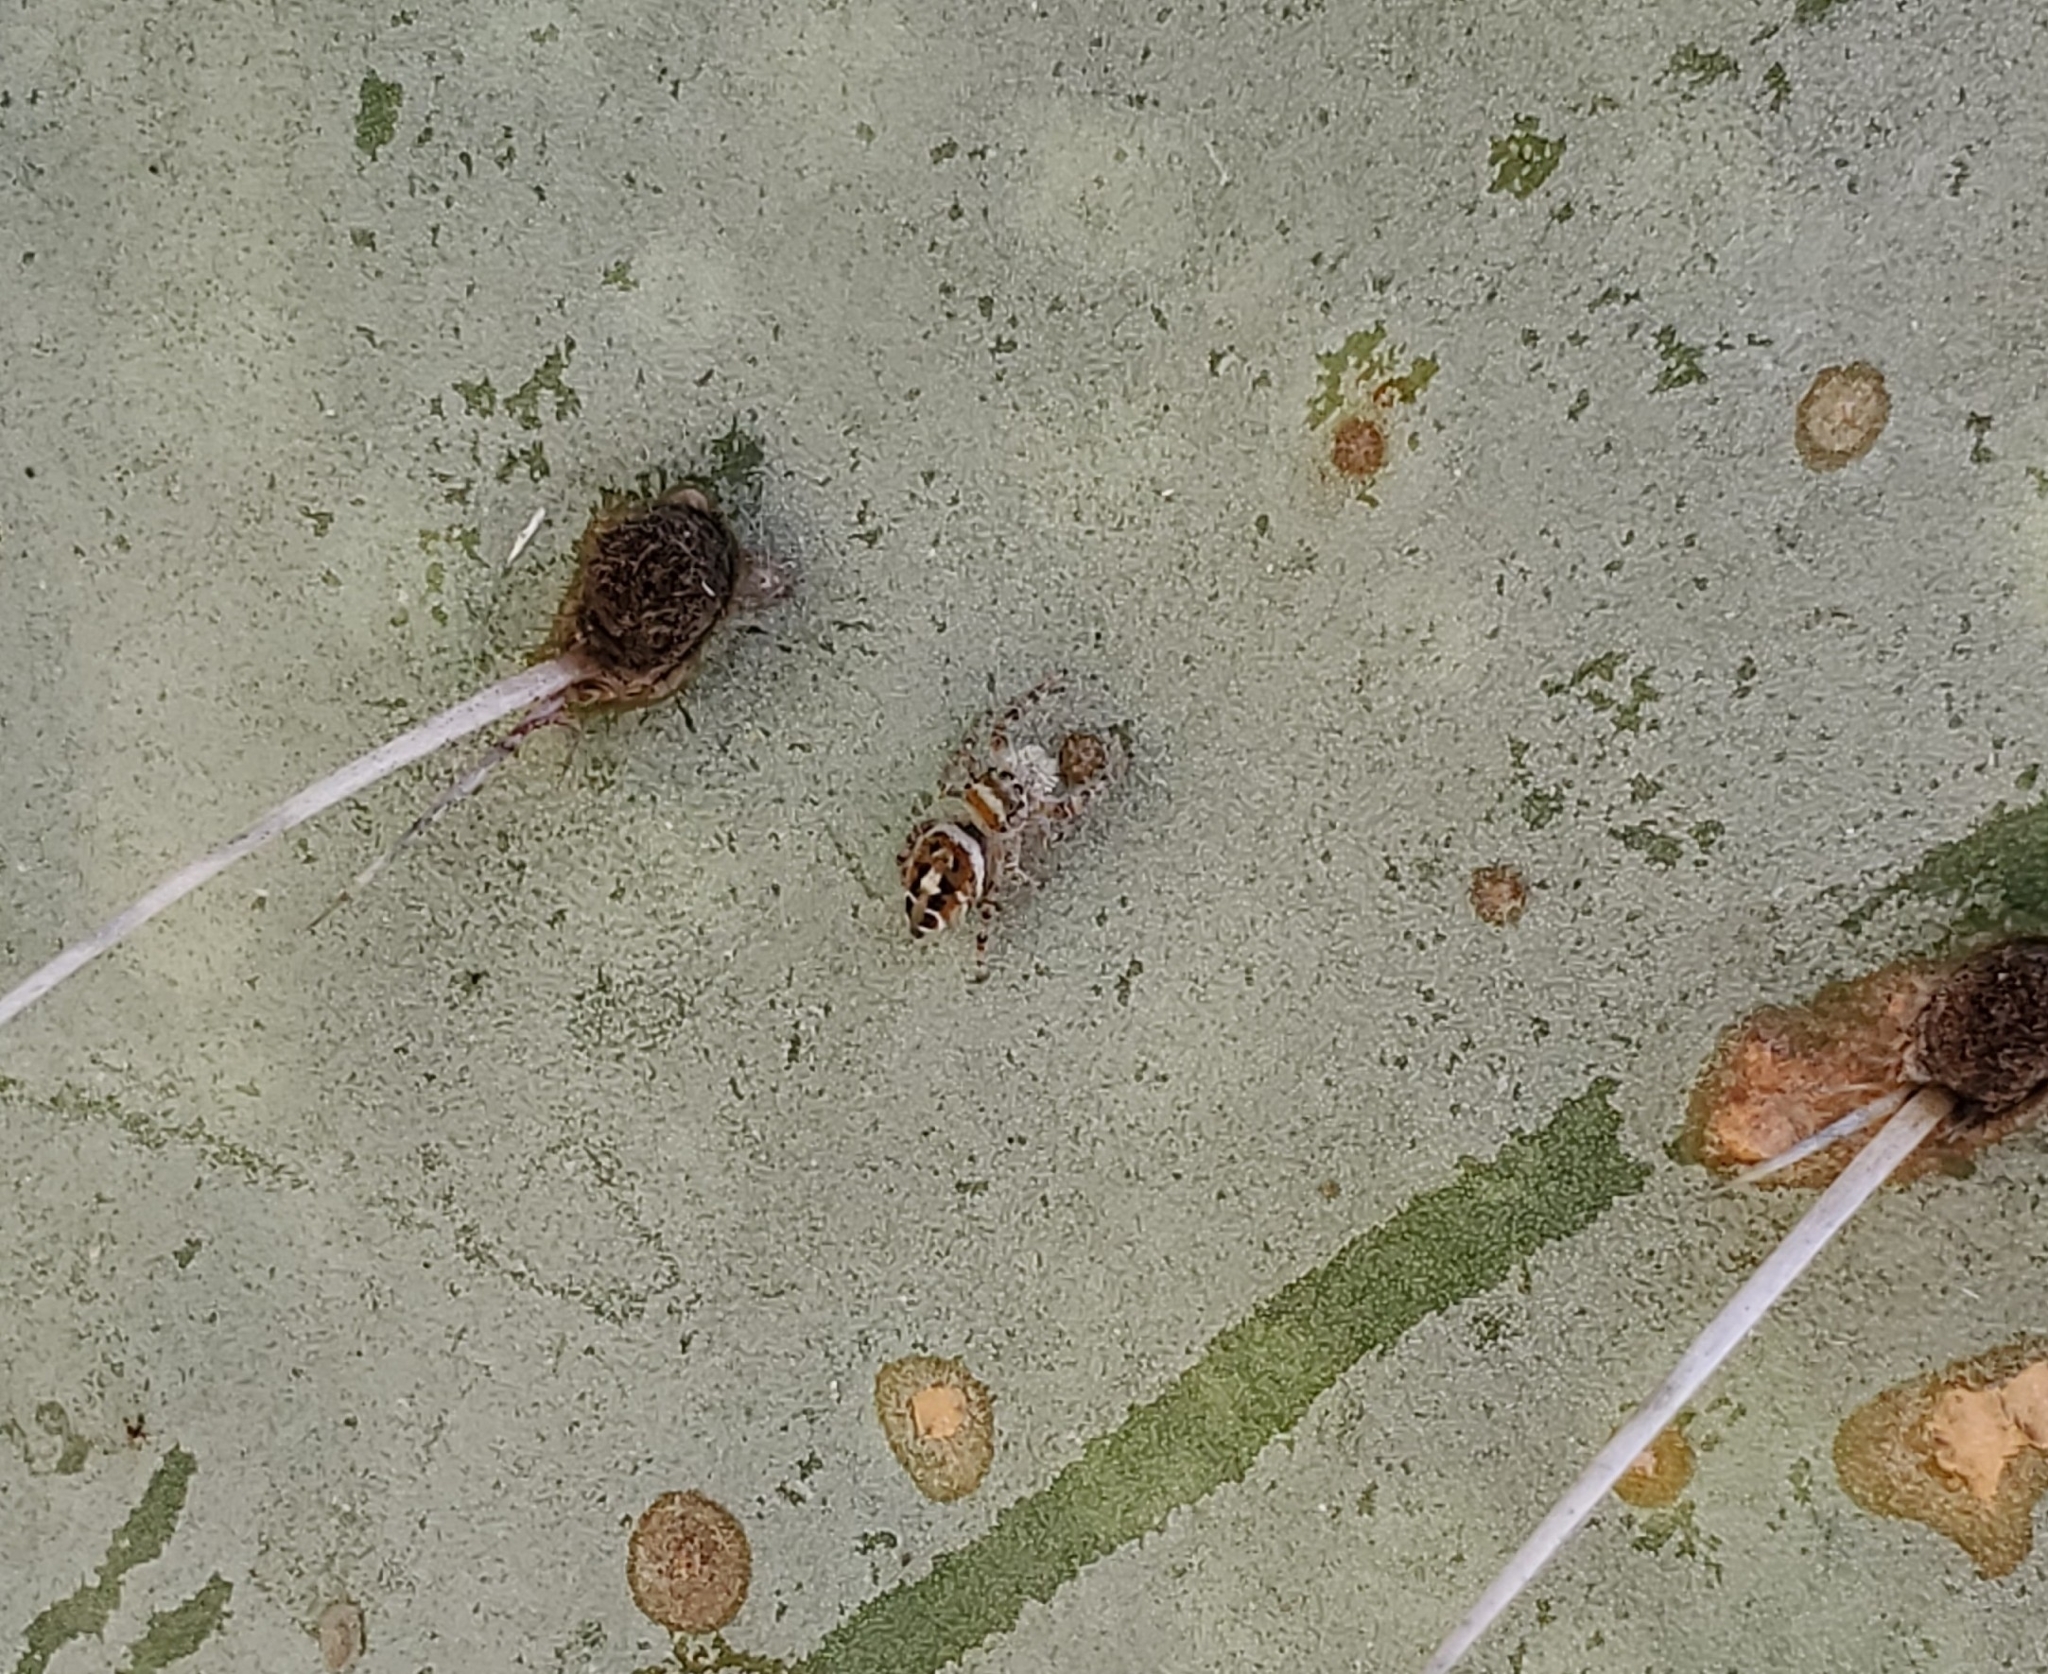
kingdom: Animalia
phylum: Arthropoda
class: Arachnida
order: Araneae
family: Salticidae
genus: Phidippus
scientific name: Phidippus arizonensis
